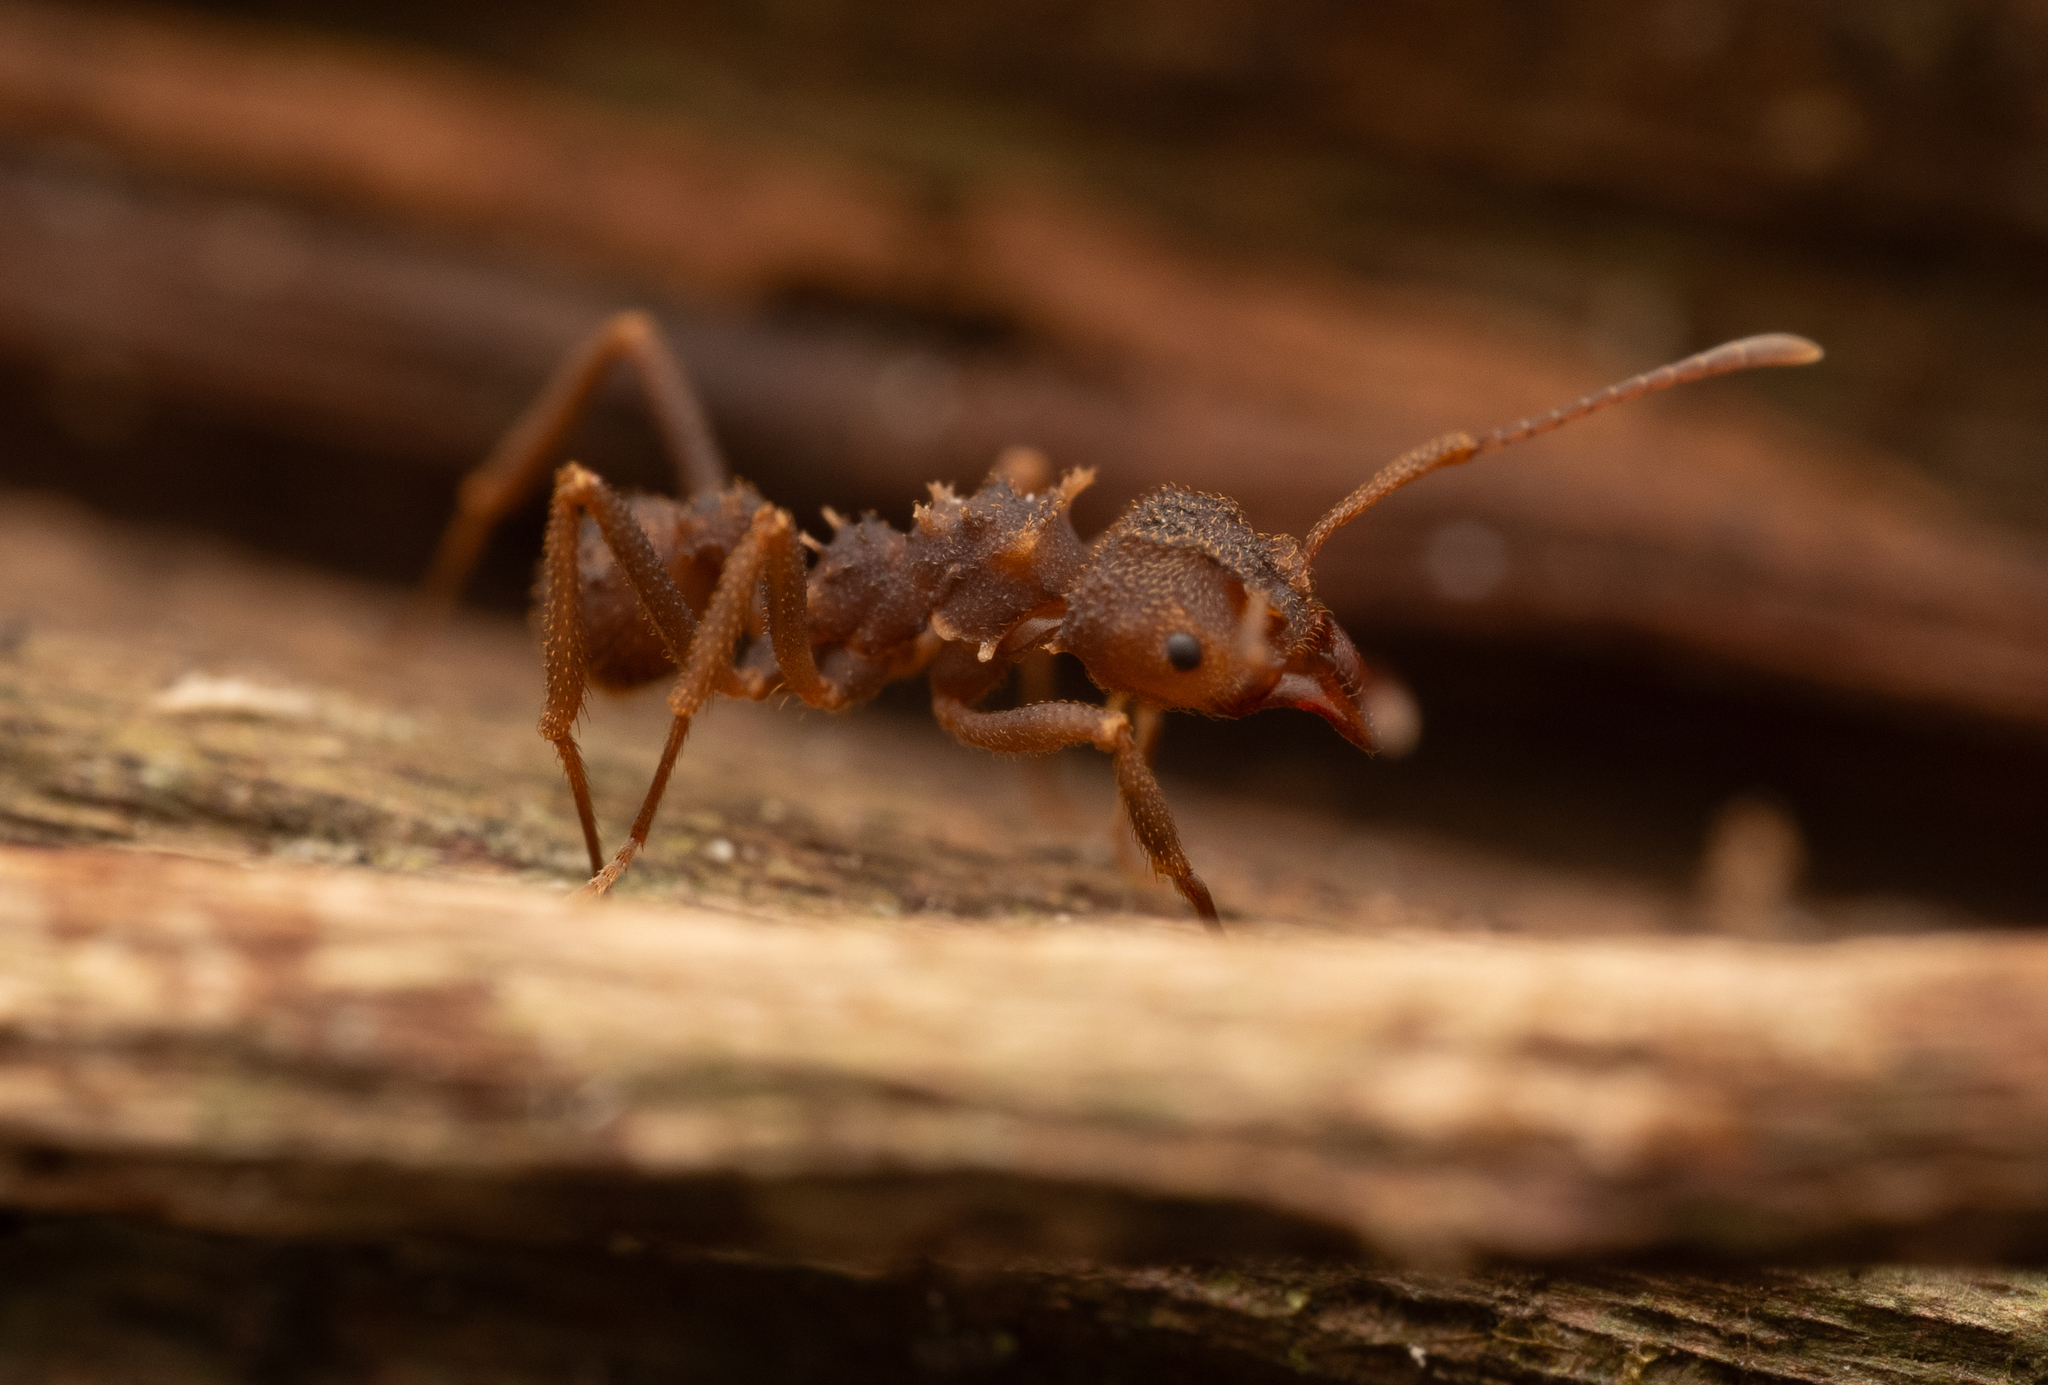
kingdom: Animalia
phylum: Arthropoda
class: Insecta
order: Hymenoptera
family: Formicidae
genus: Trachymyrmex
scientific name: Trachymyrmex diversus
